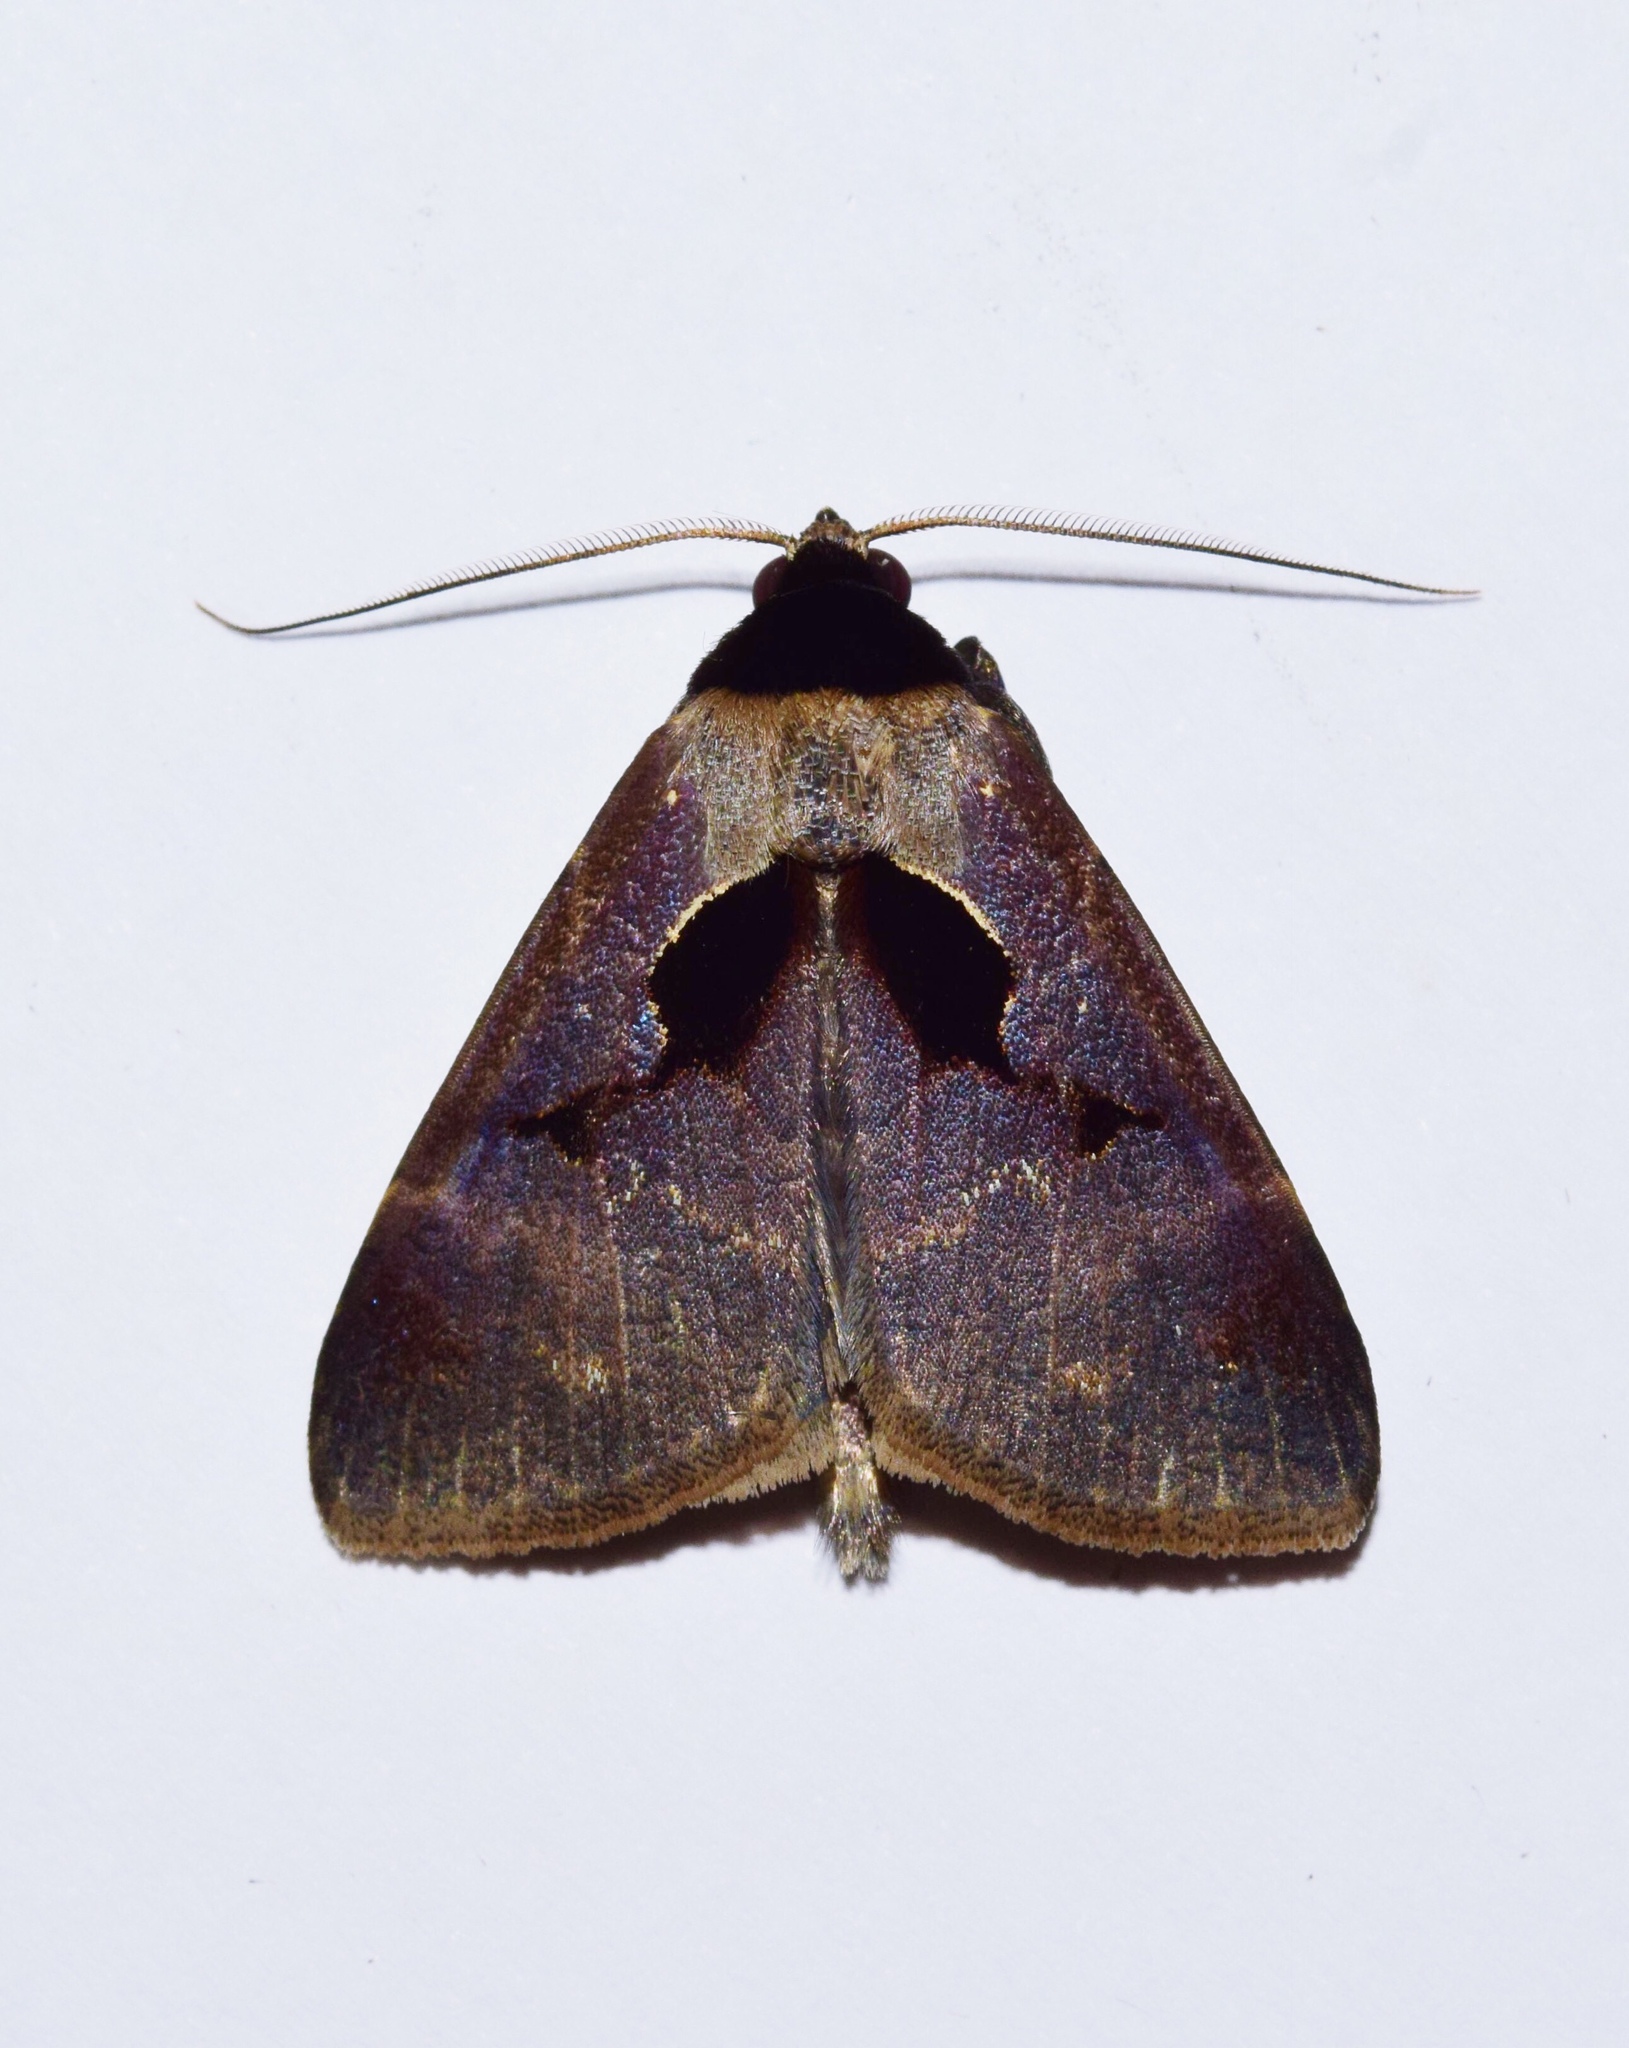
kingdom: Animalia
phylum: Arthropoda
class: Insecta
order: Lepidoptera
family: Erebidae
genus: Anoba
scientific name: Anoba atriplaga
